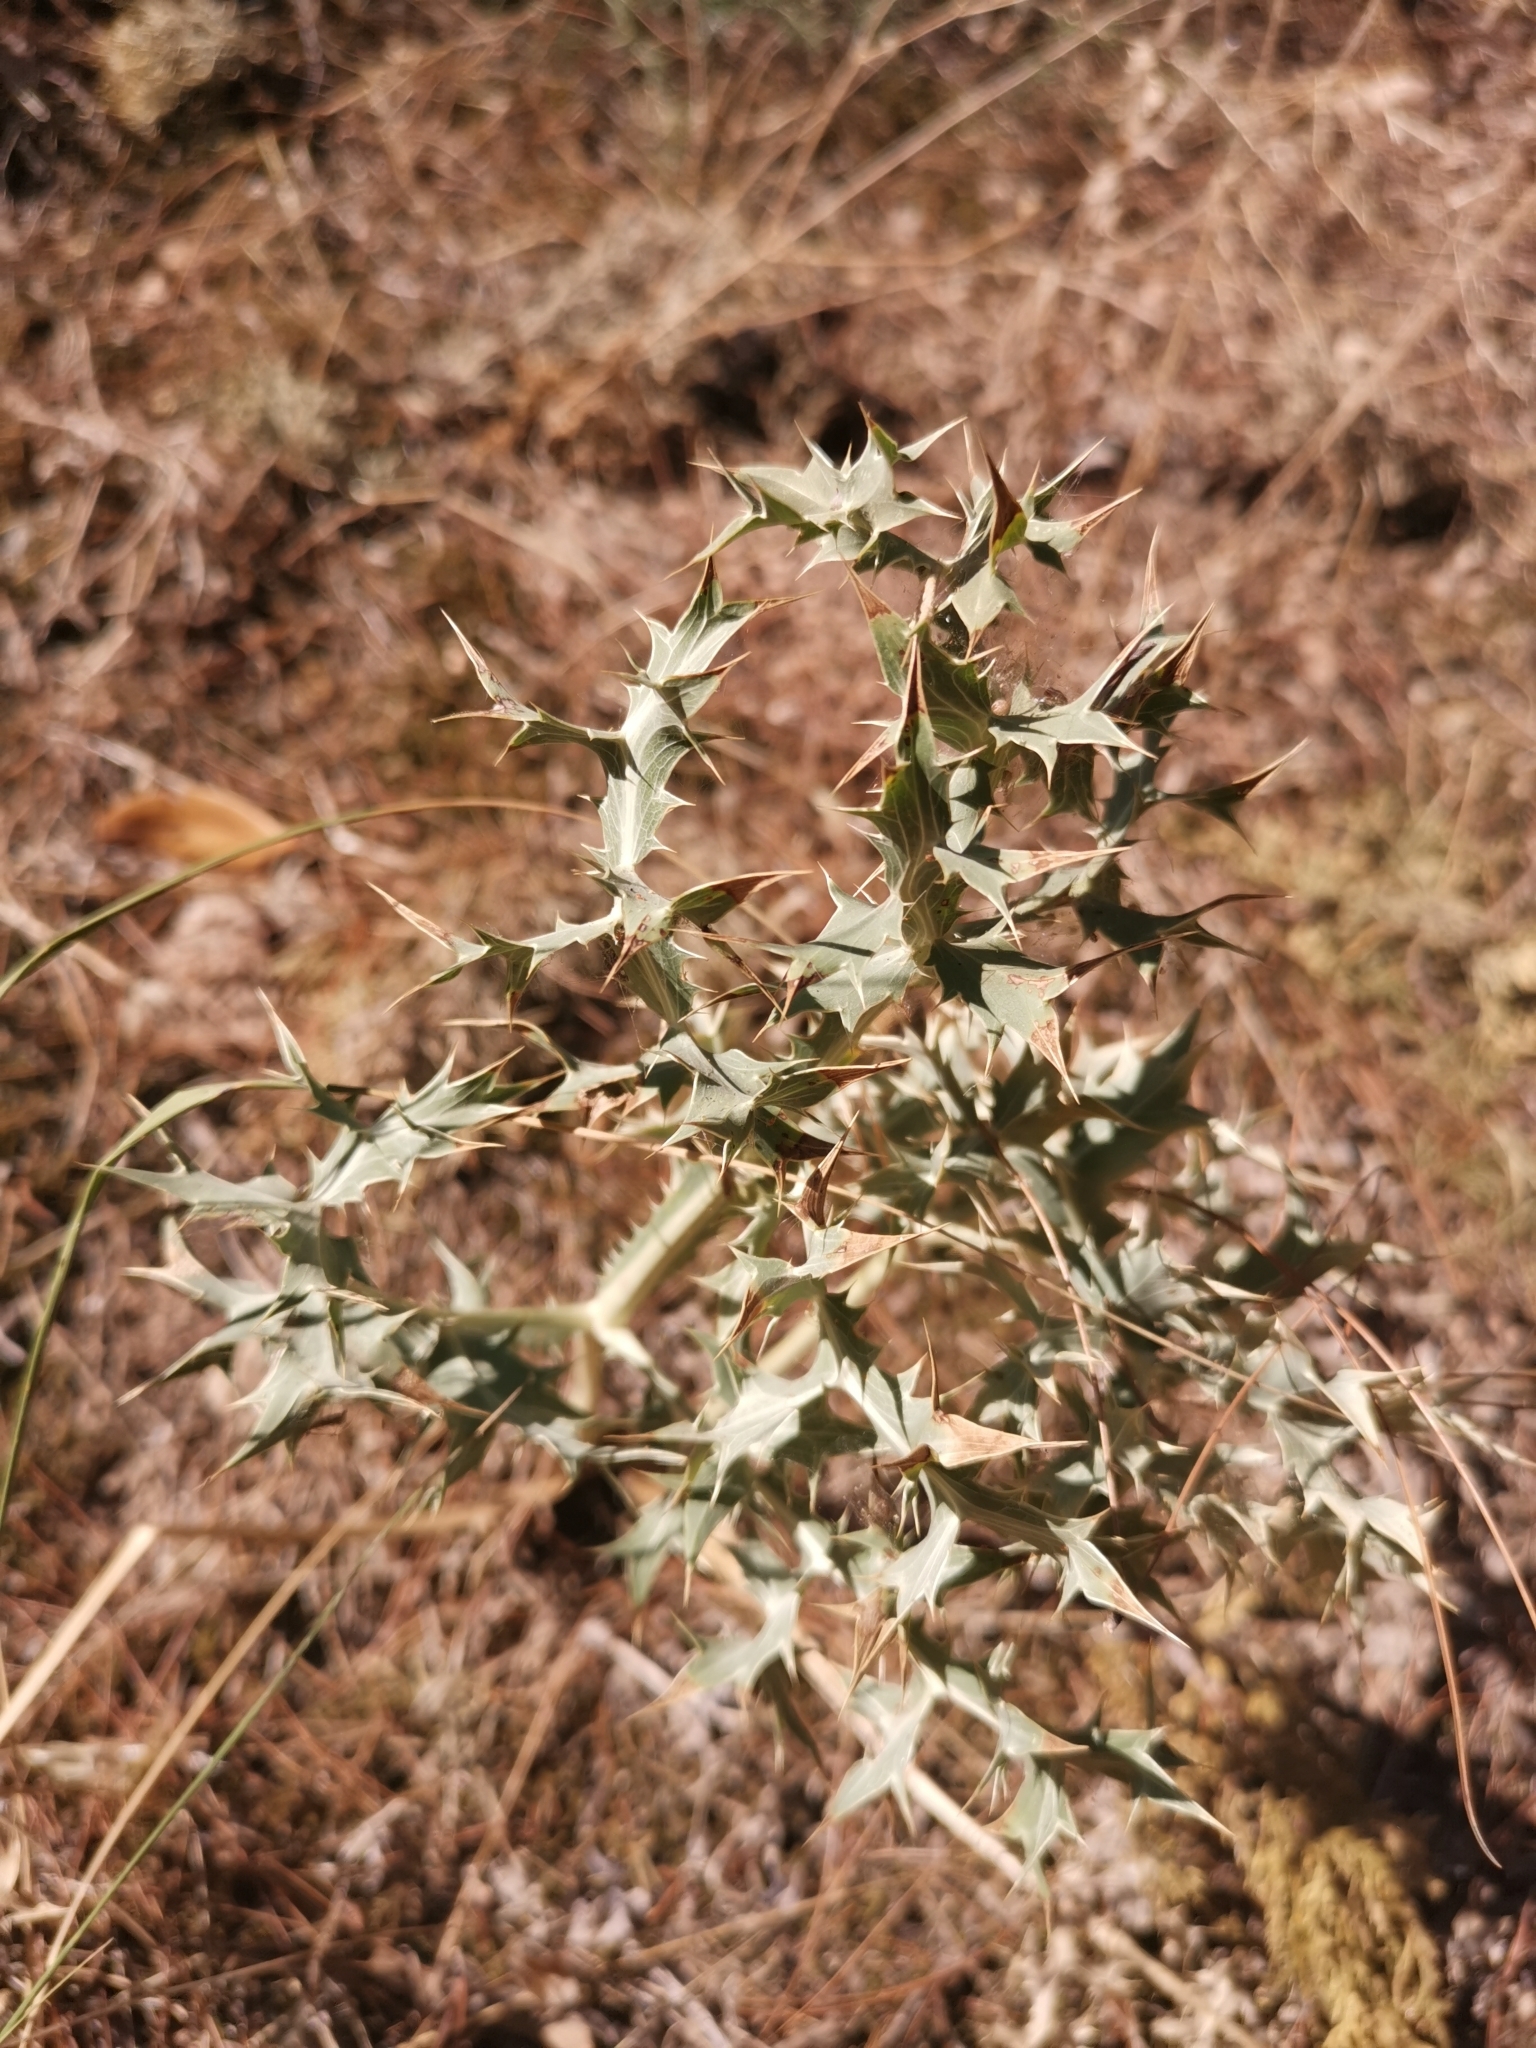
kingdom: Plantae
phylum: Tracheophyta
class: Magnoliopsida
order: Apiales
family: Apiaceae
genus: Eryngium
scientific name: Eryngium campestre
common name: Field eryngo
